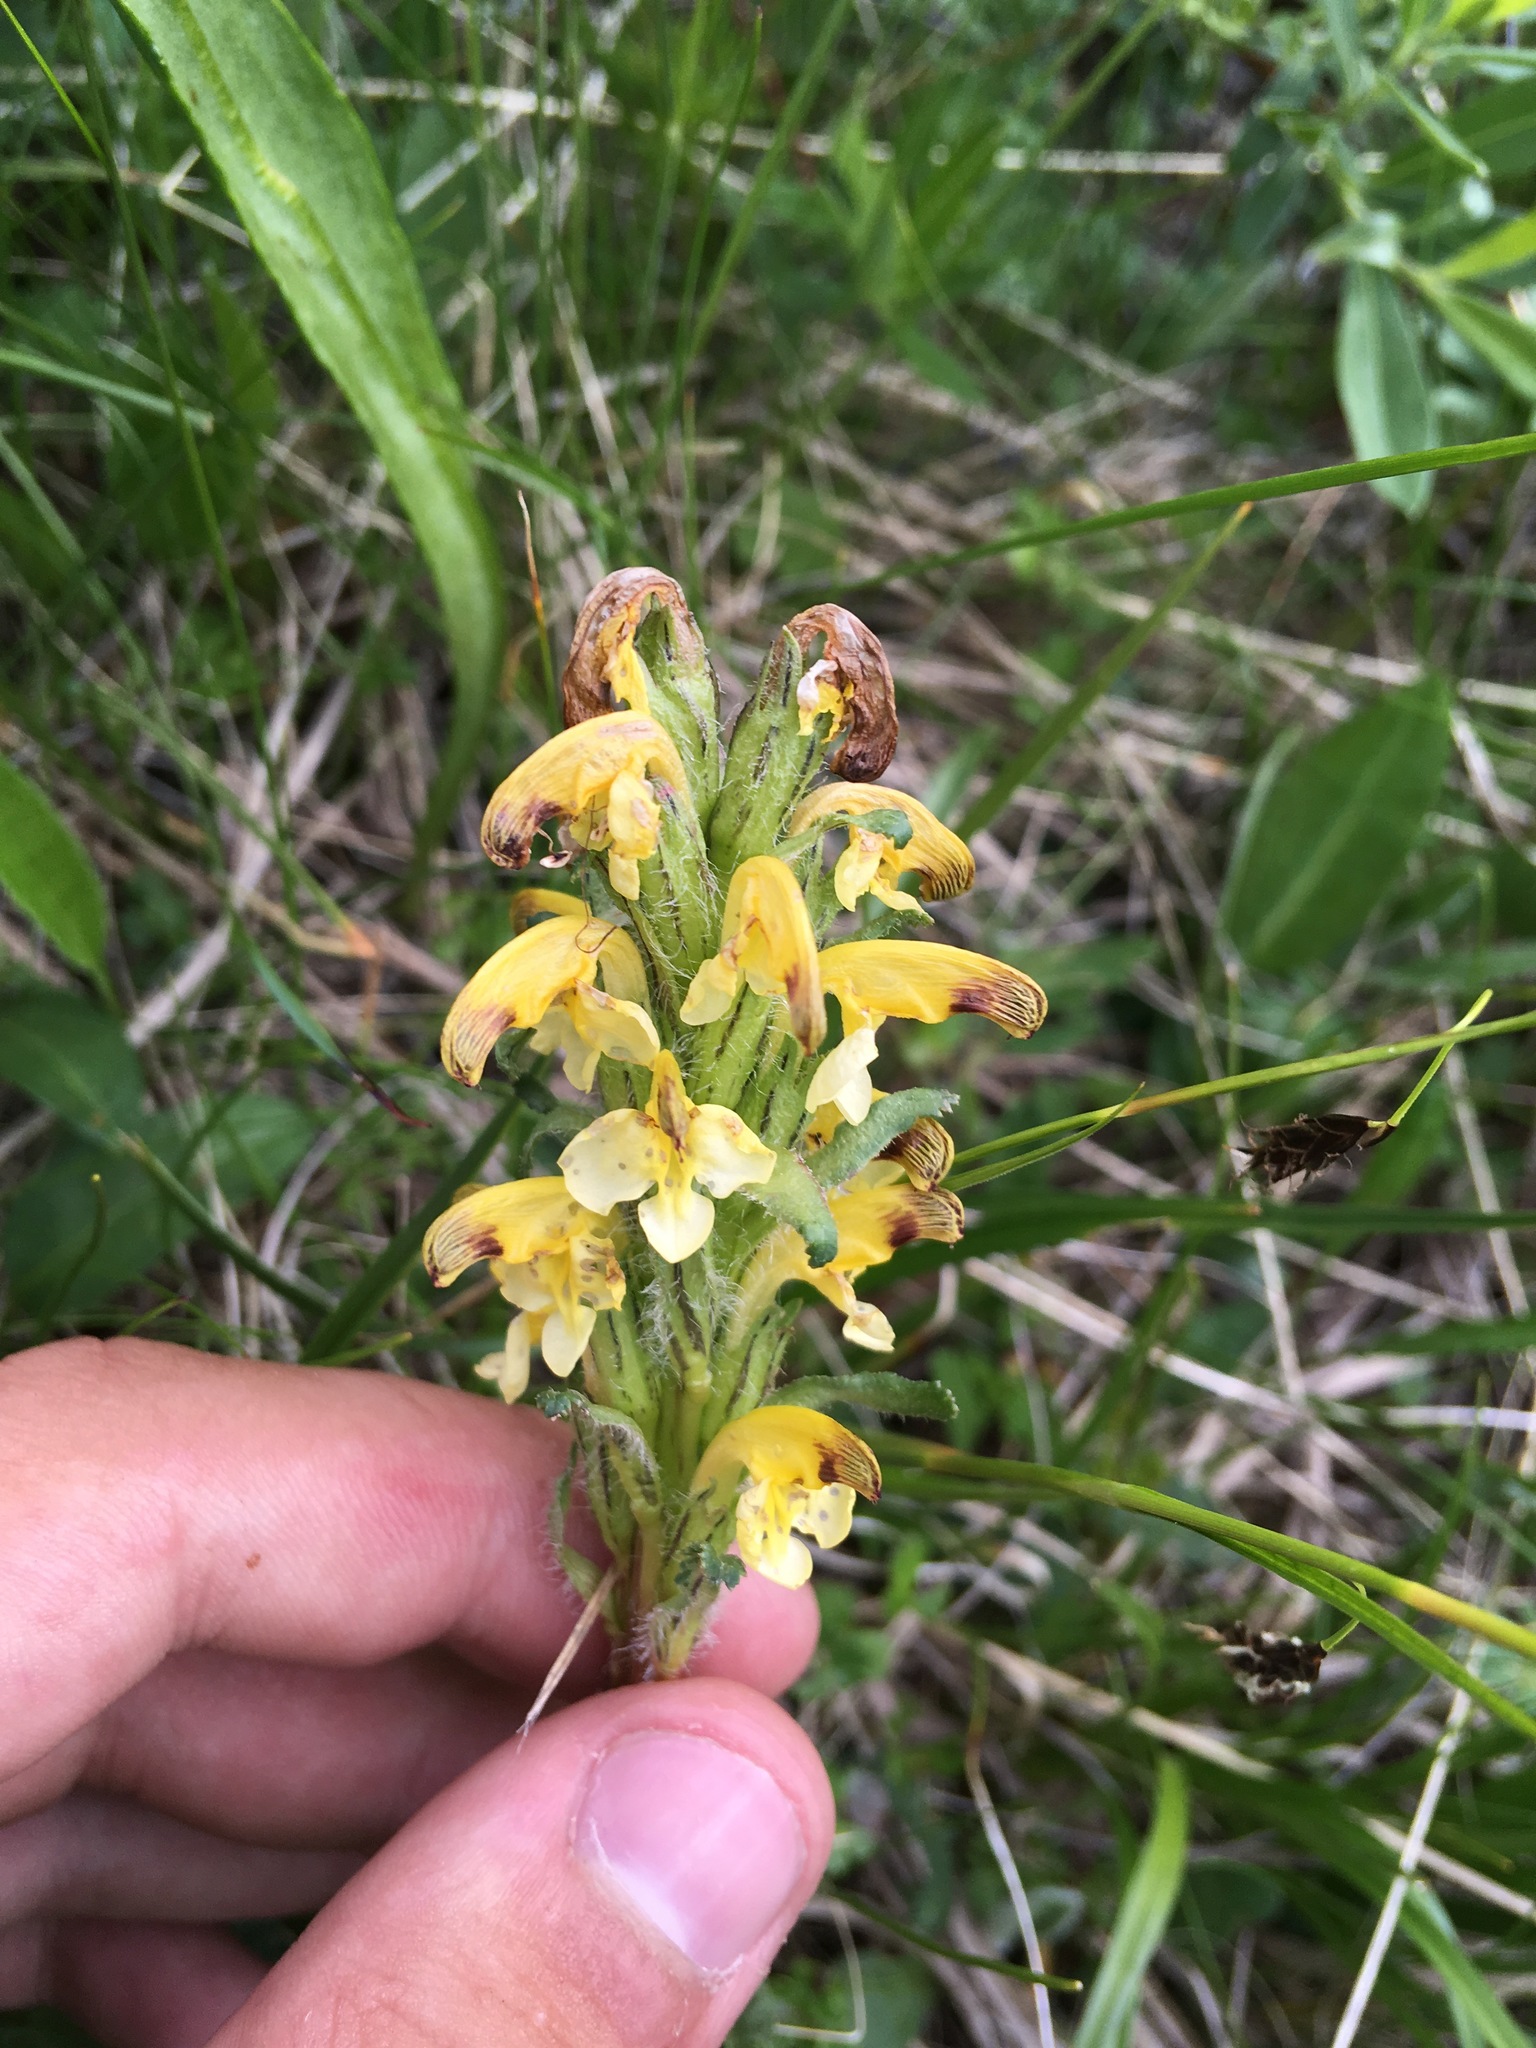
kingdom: Plantae
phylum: Tracheophyta
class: Magnoliopsida
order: Lamiales
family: Orobanchaceae
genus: Pedicularis
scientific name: Pedicularis oederi
